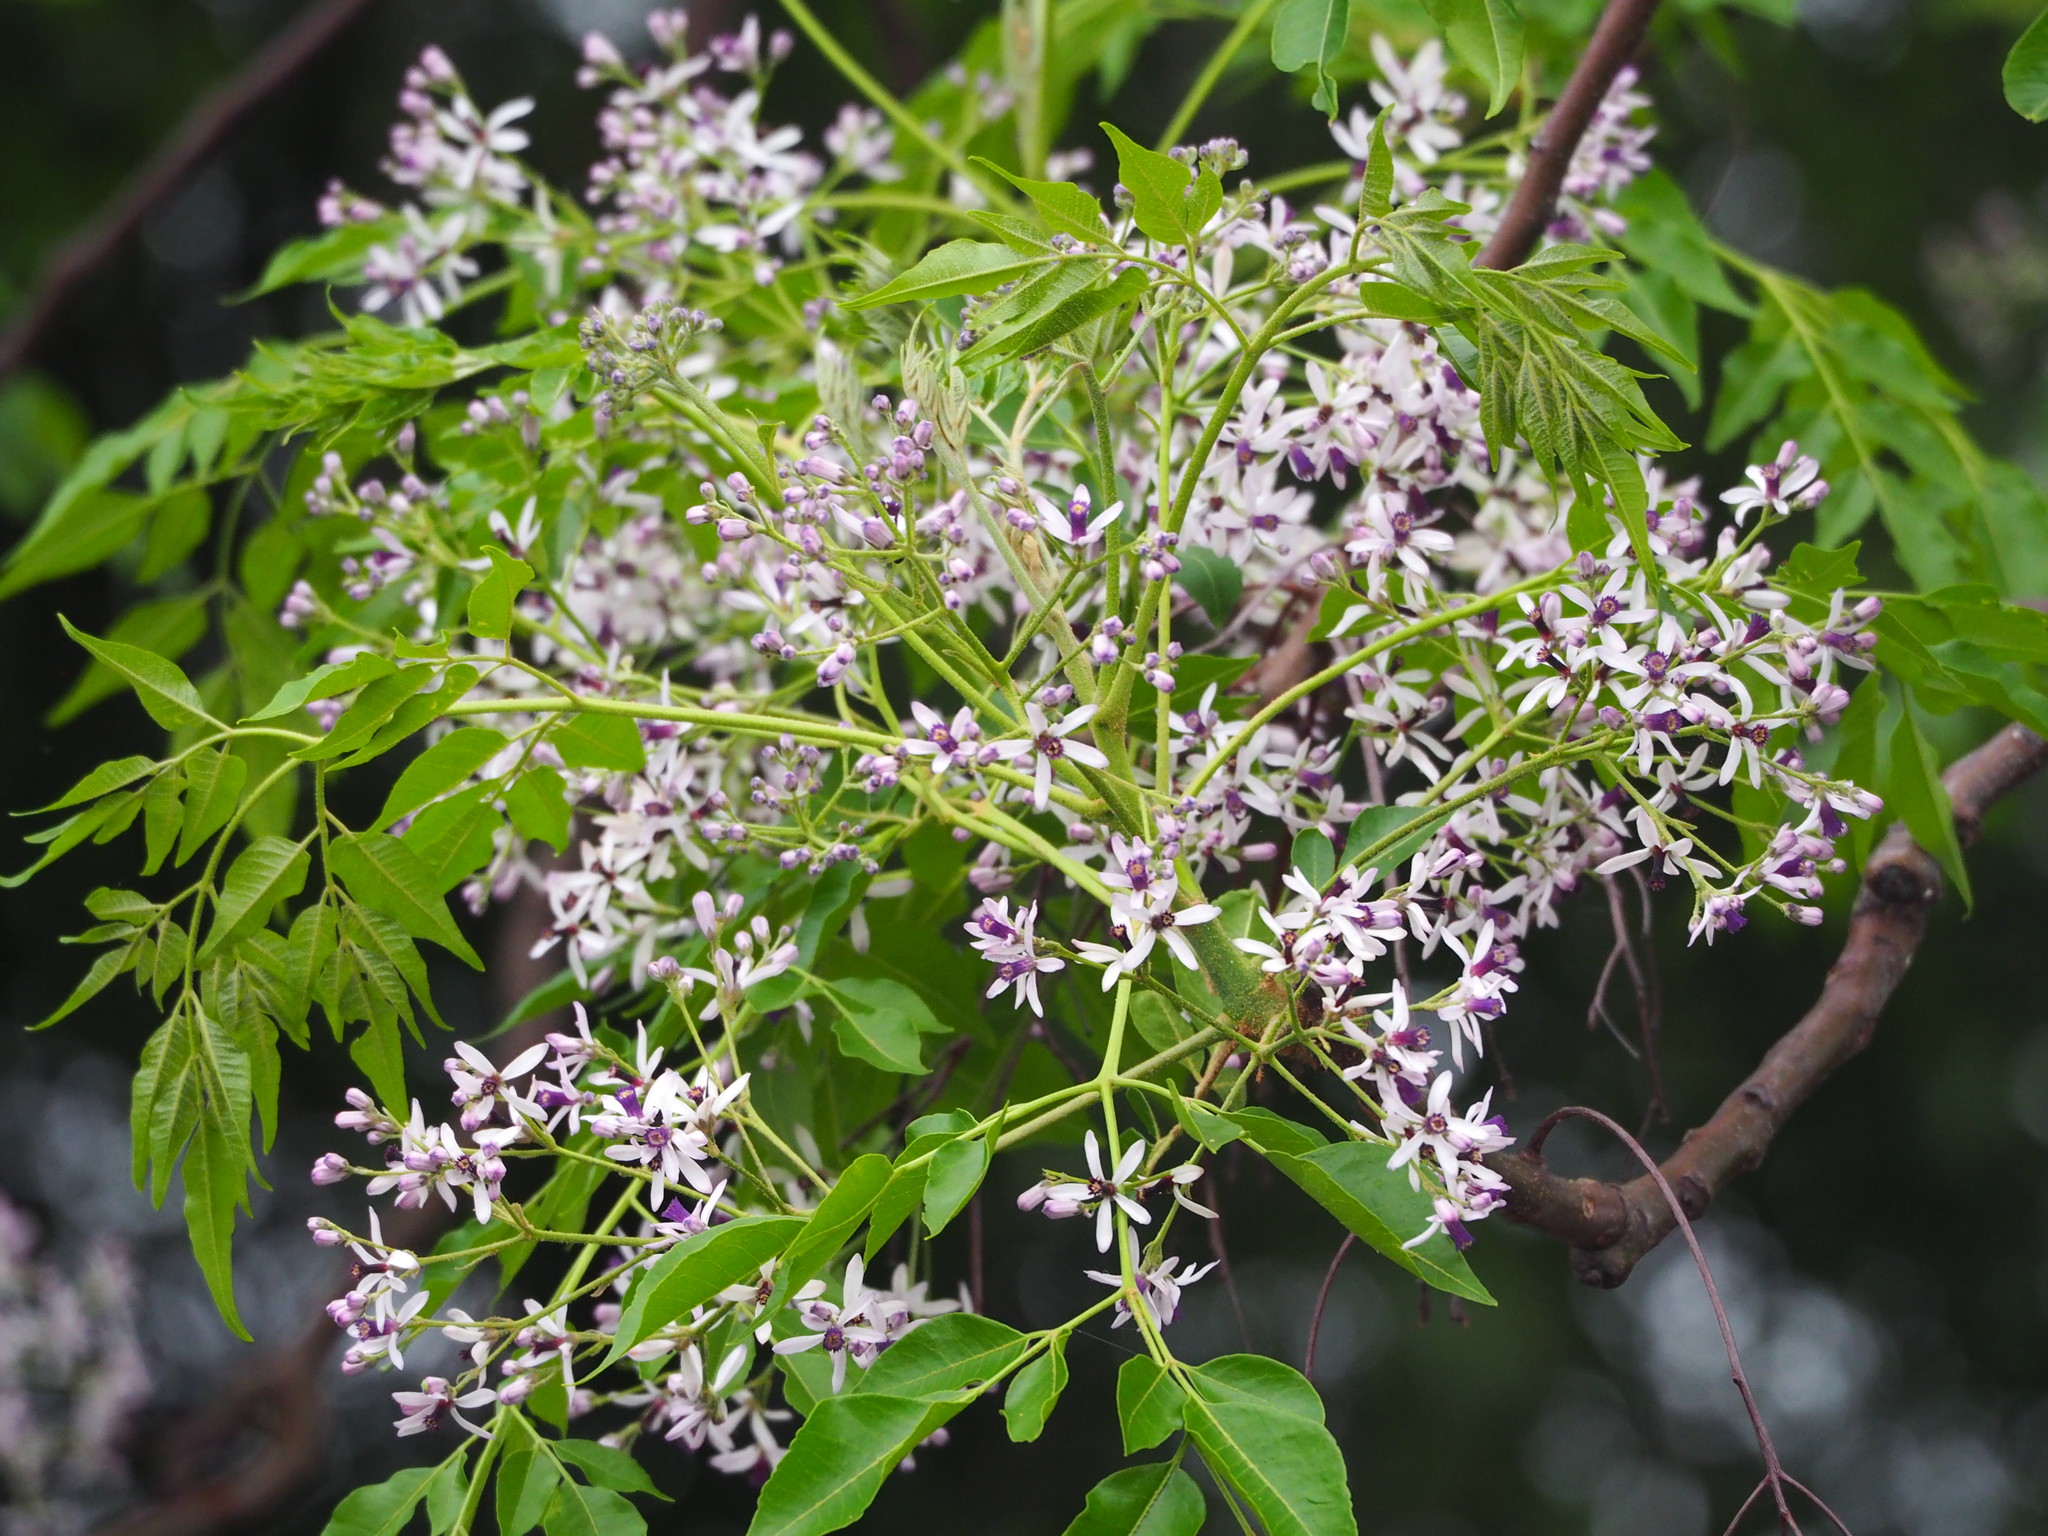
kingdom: Plantae
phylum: Tracheophyta
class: Magnoliopsida
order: Sapindales
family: Meliaceae
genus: Melia
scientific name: Melia azedarach
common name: Chinaberrytree
